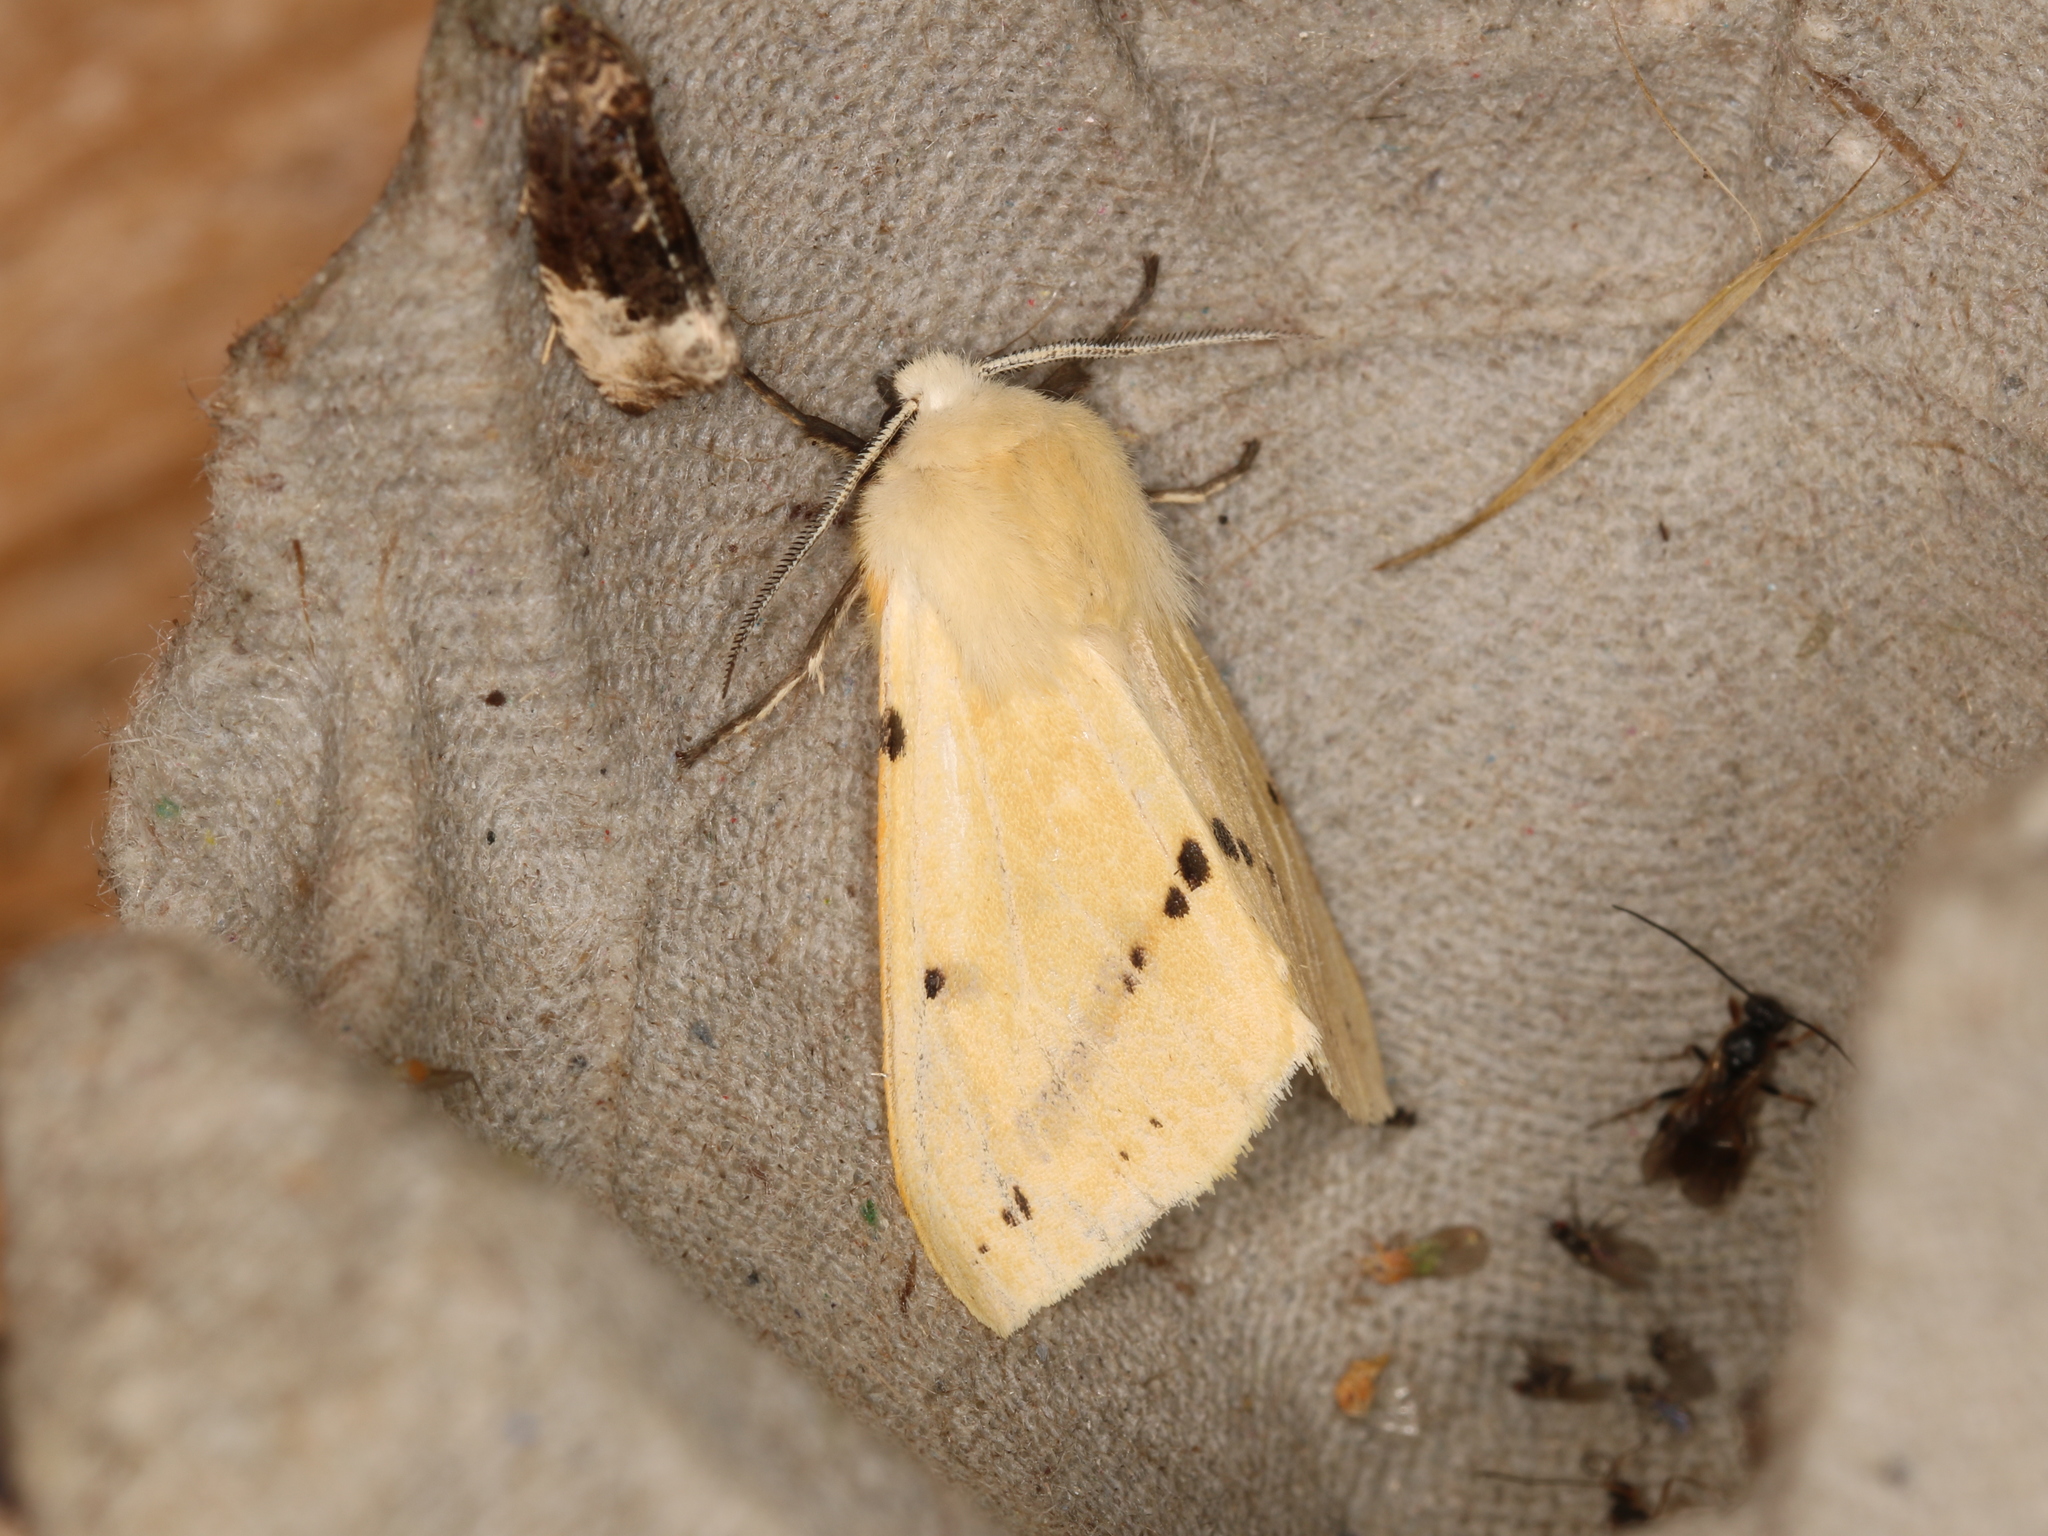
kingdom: Animalia
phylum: Arthropoda
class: Insecta
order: Lepidoptera
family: Erebidae
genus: Spilarctia
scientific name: Spilarctia lutea
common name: Buff ermine
